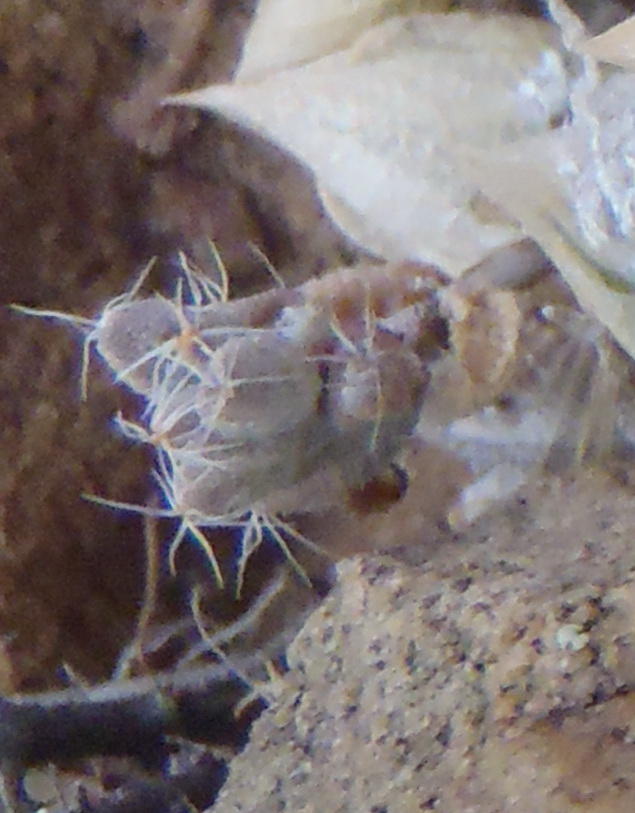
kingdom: Plantae
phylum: Tracheophyta
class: Magnoliopsida
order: Caryophyllales
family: Aizoaceae
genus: Trichodiadema
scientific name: Trichodiadema setuliferum
